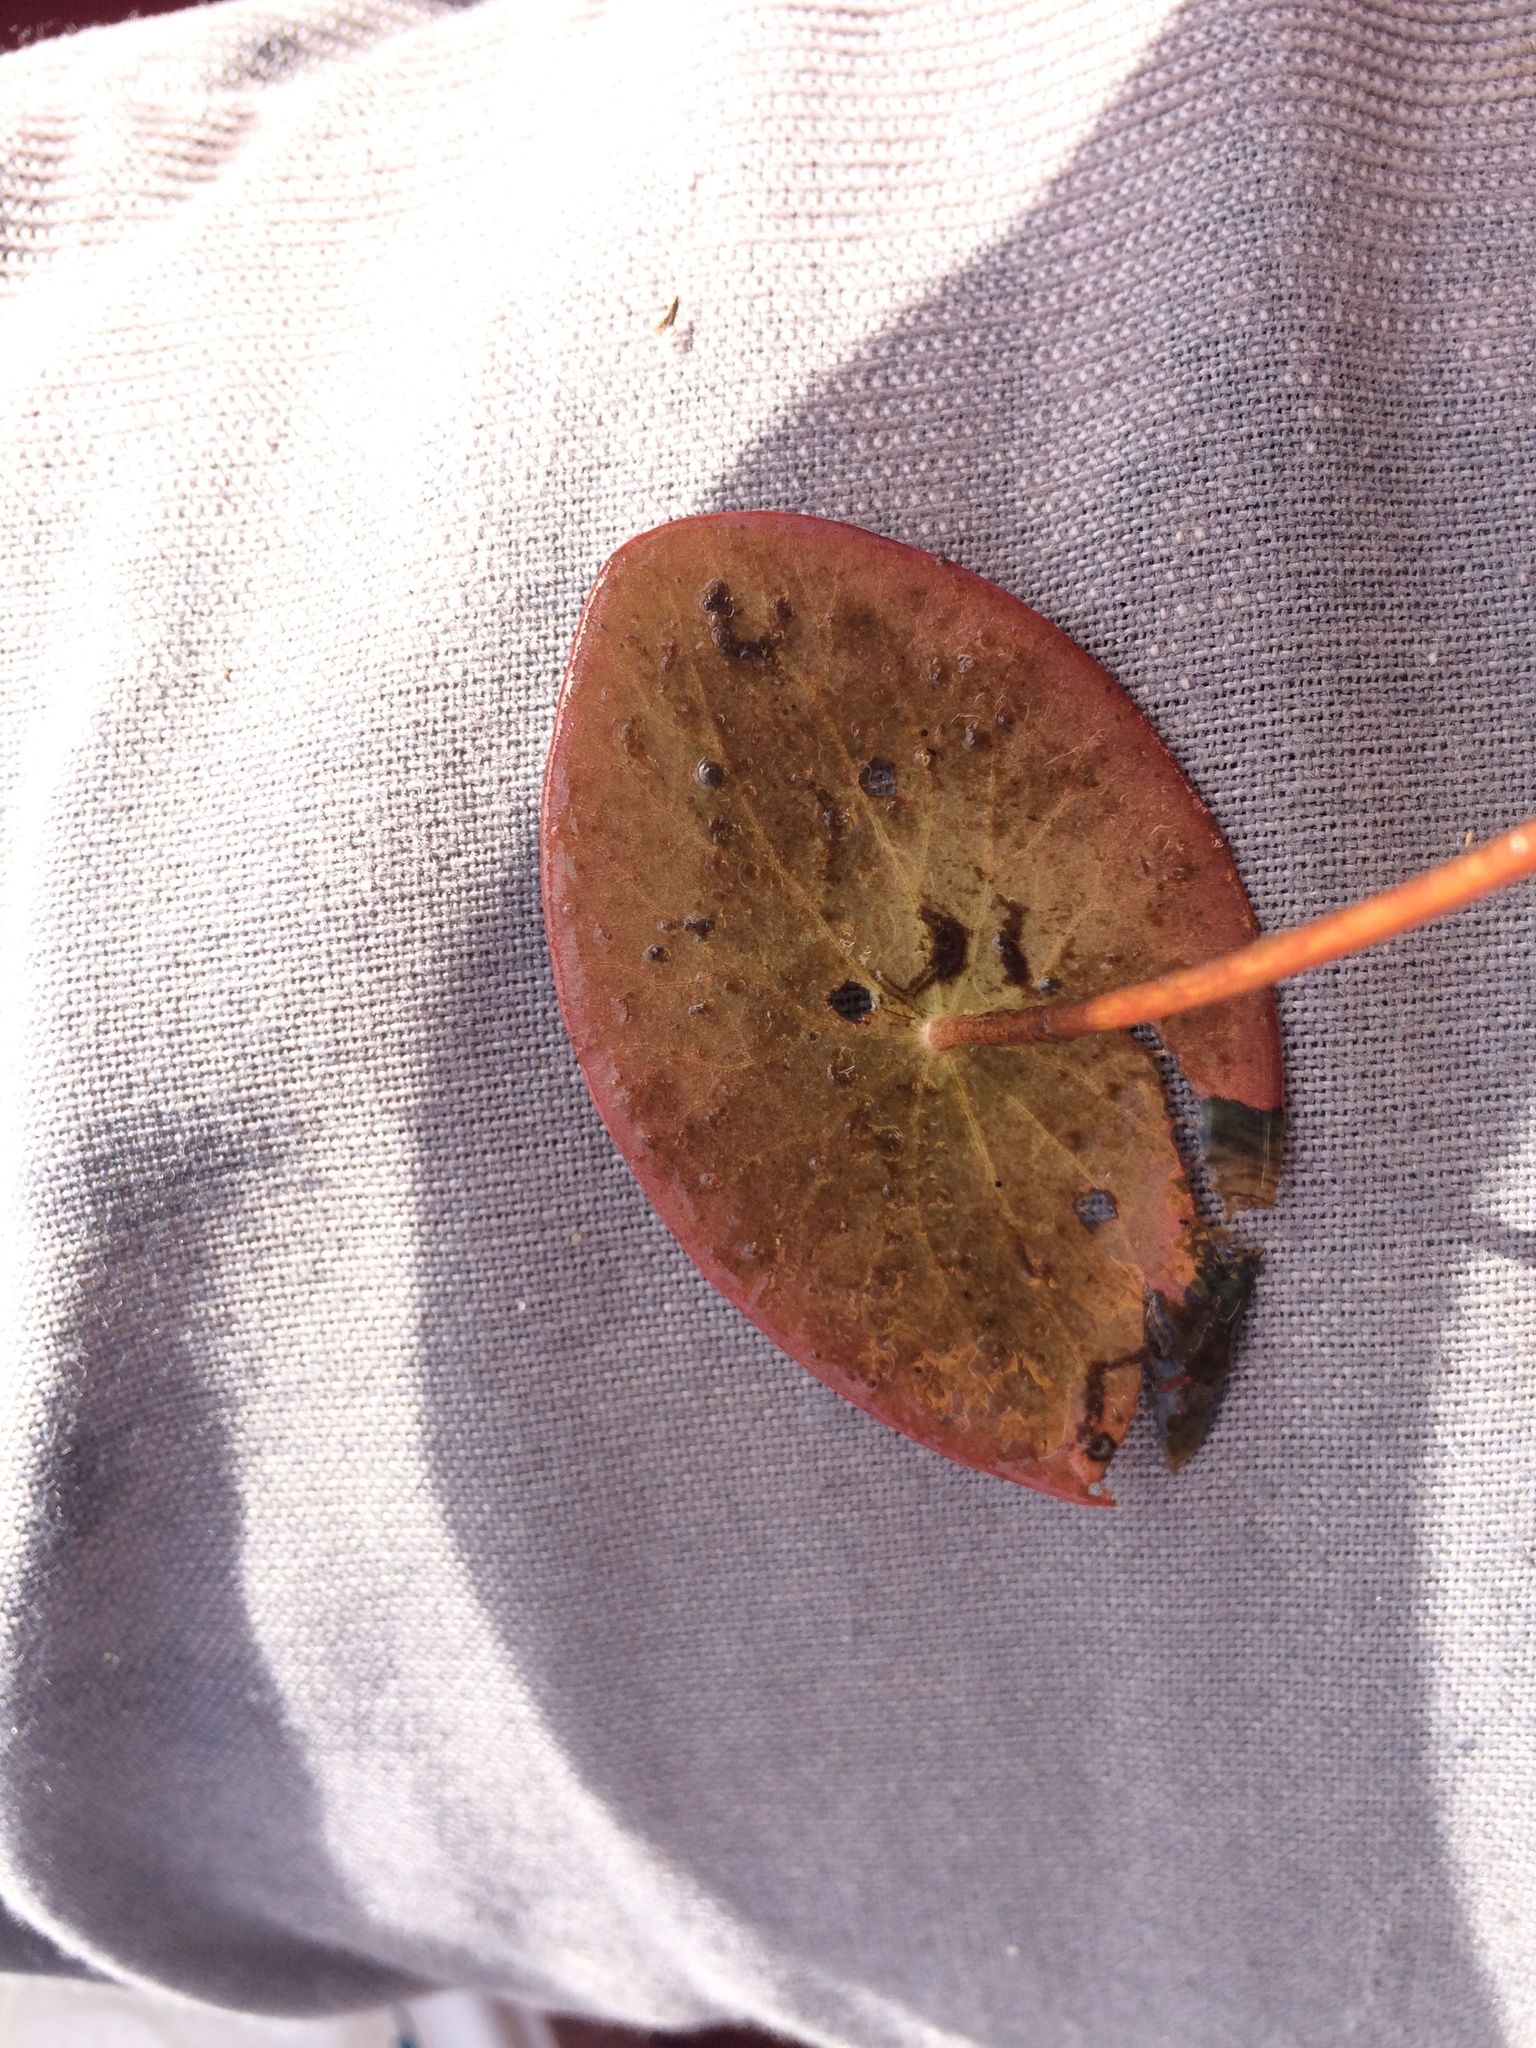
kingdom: Plantae
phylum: Tracheophyta
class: Magnoliopsida
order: Nymphaeales
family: Cabombaceae
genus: Brasenia
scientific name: Brasenia schreberi
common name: Water-shield
